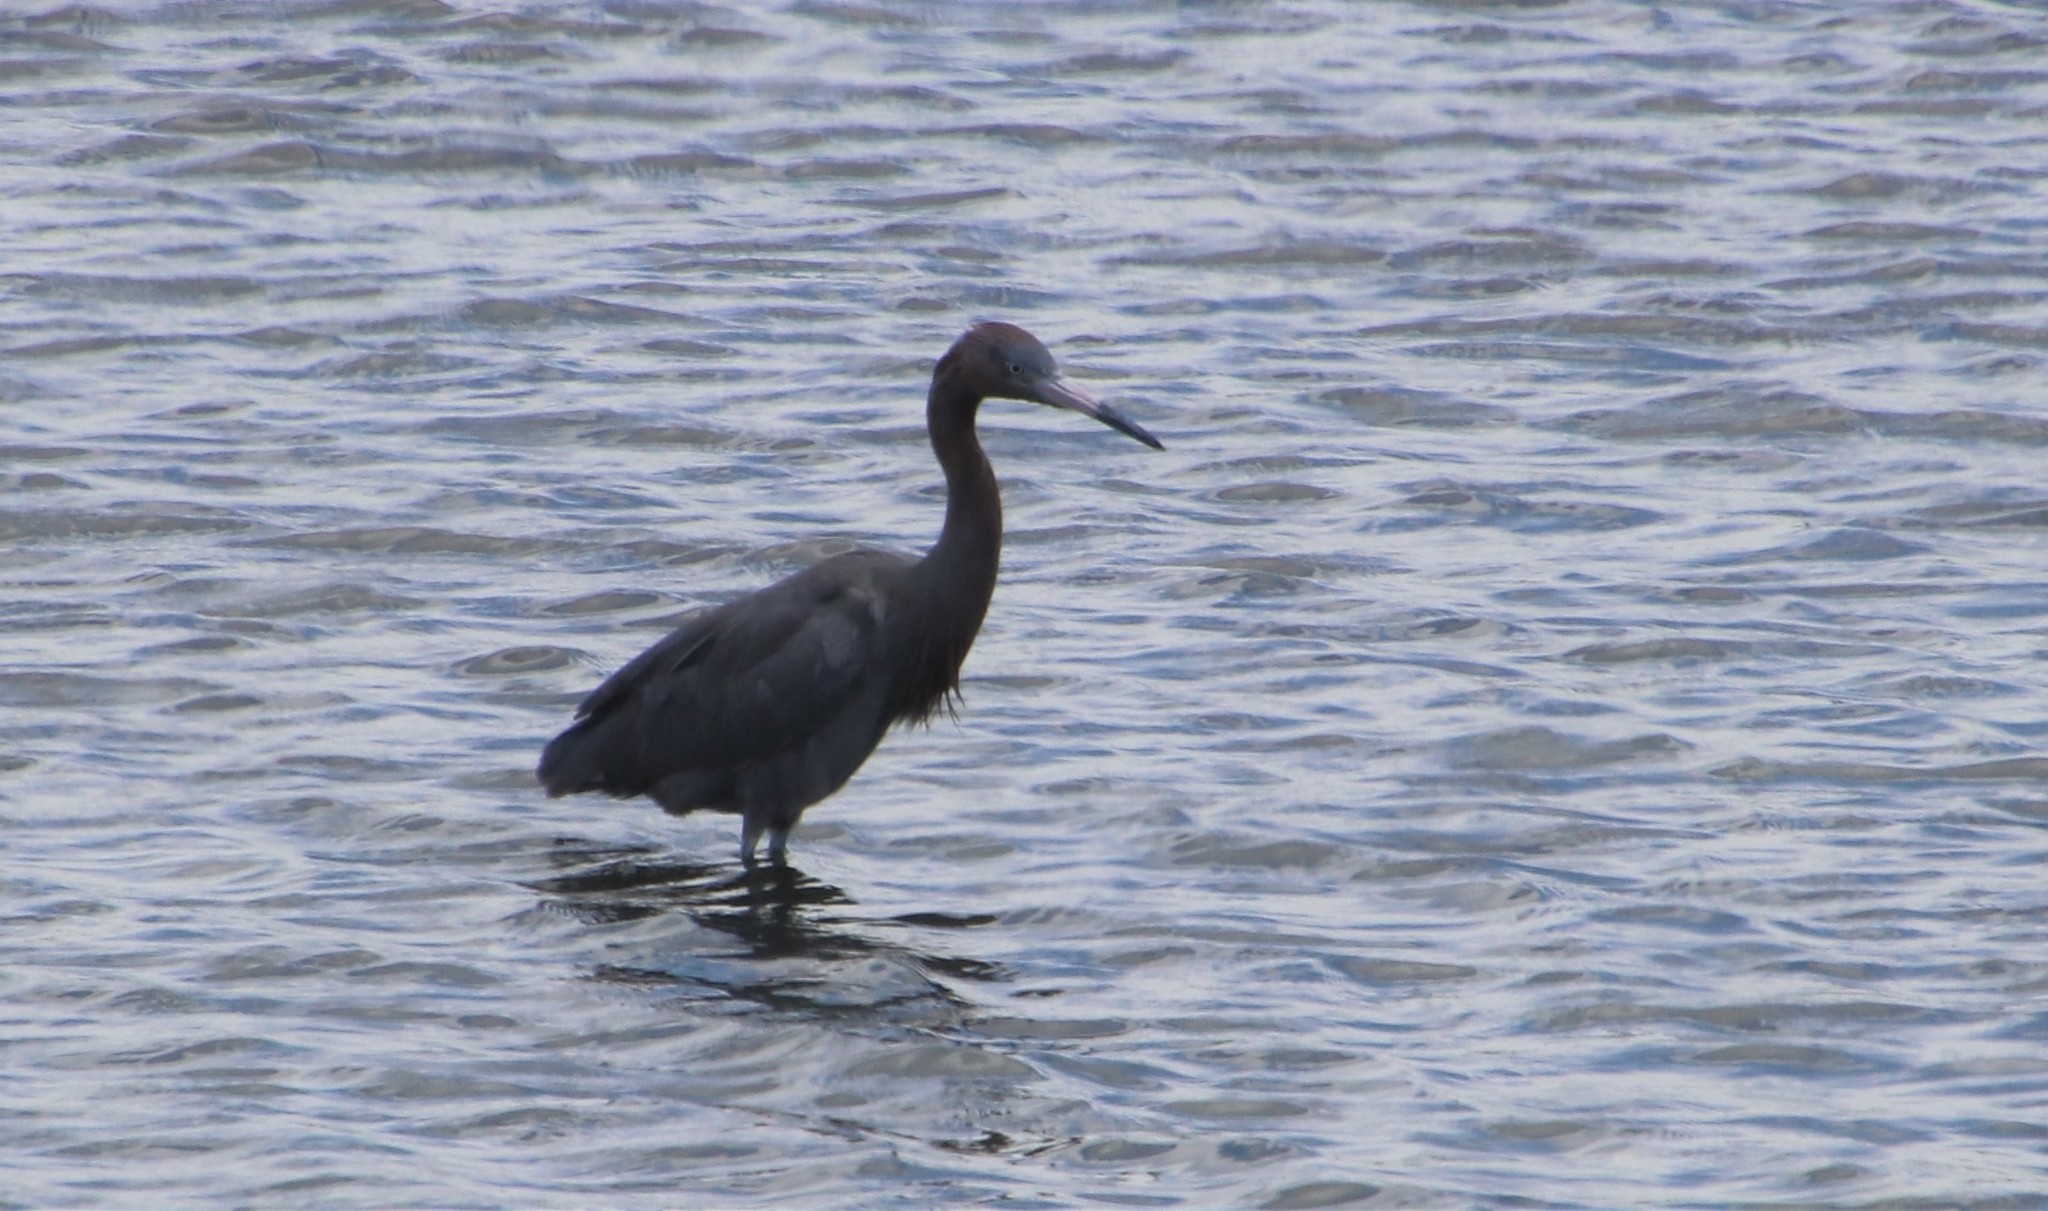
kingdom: Animalia
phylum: Chordata
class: Aves
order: Pelecaniformes
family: Ardeidae
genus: Egretta
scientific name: Egretta rufescens
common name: Reddish egret
